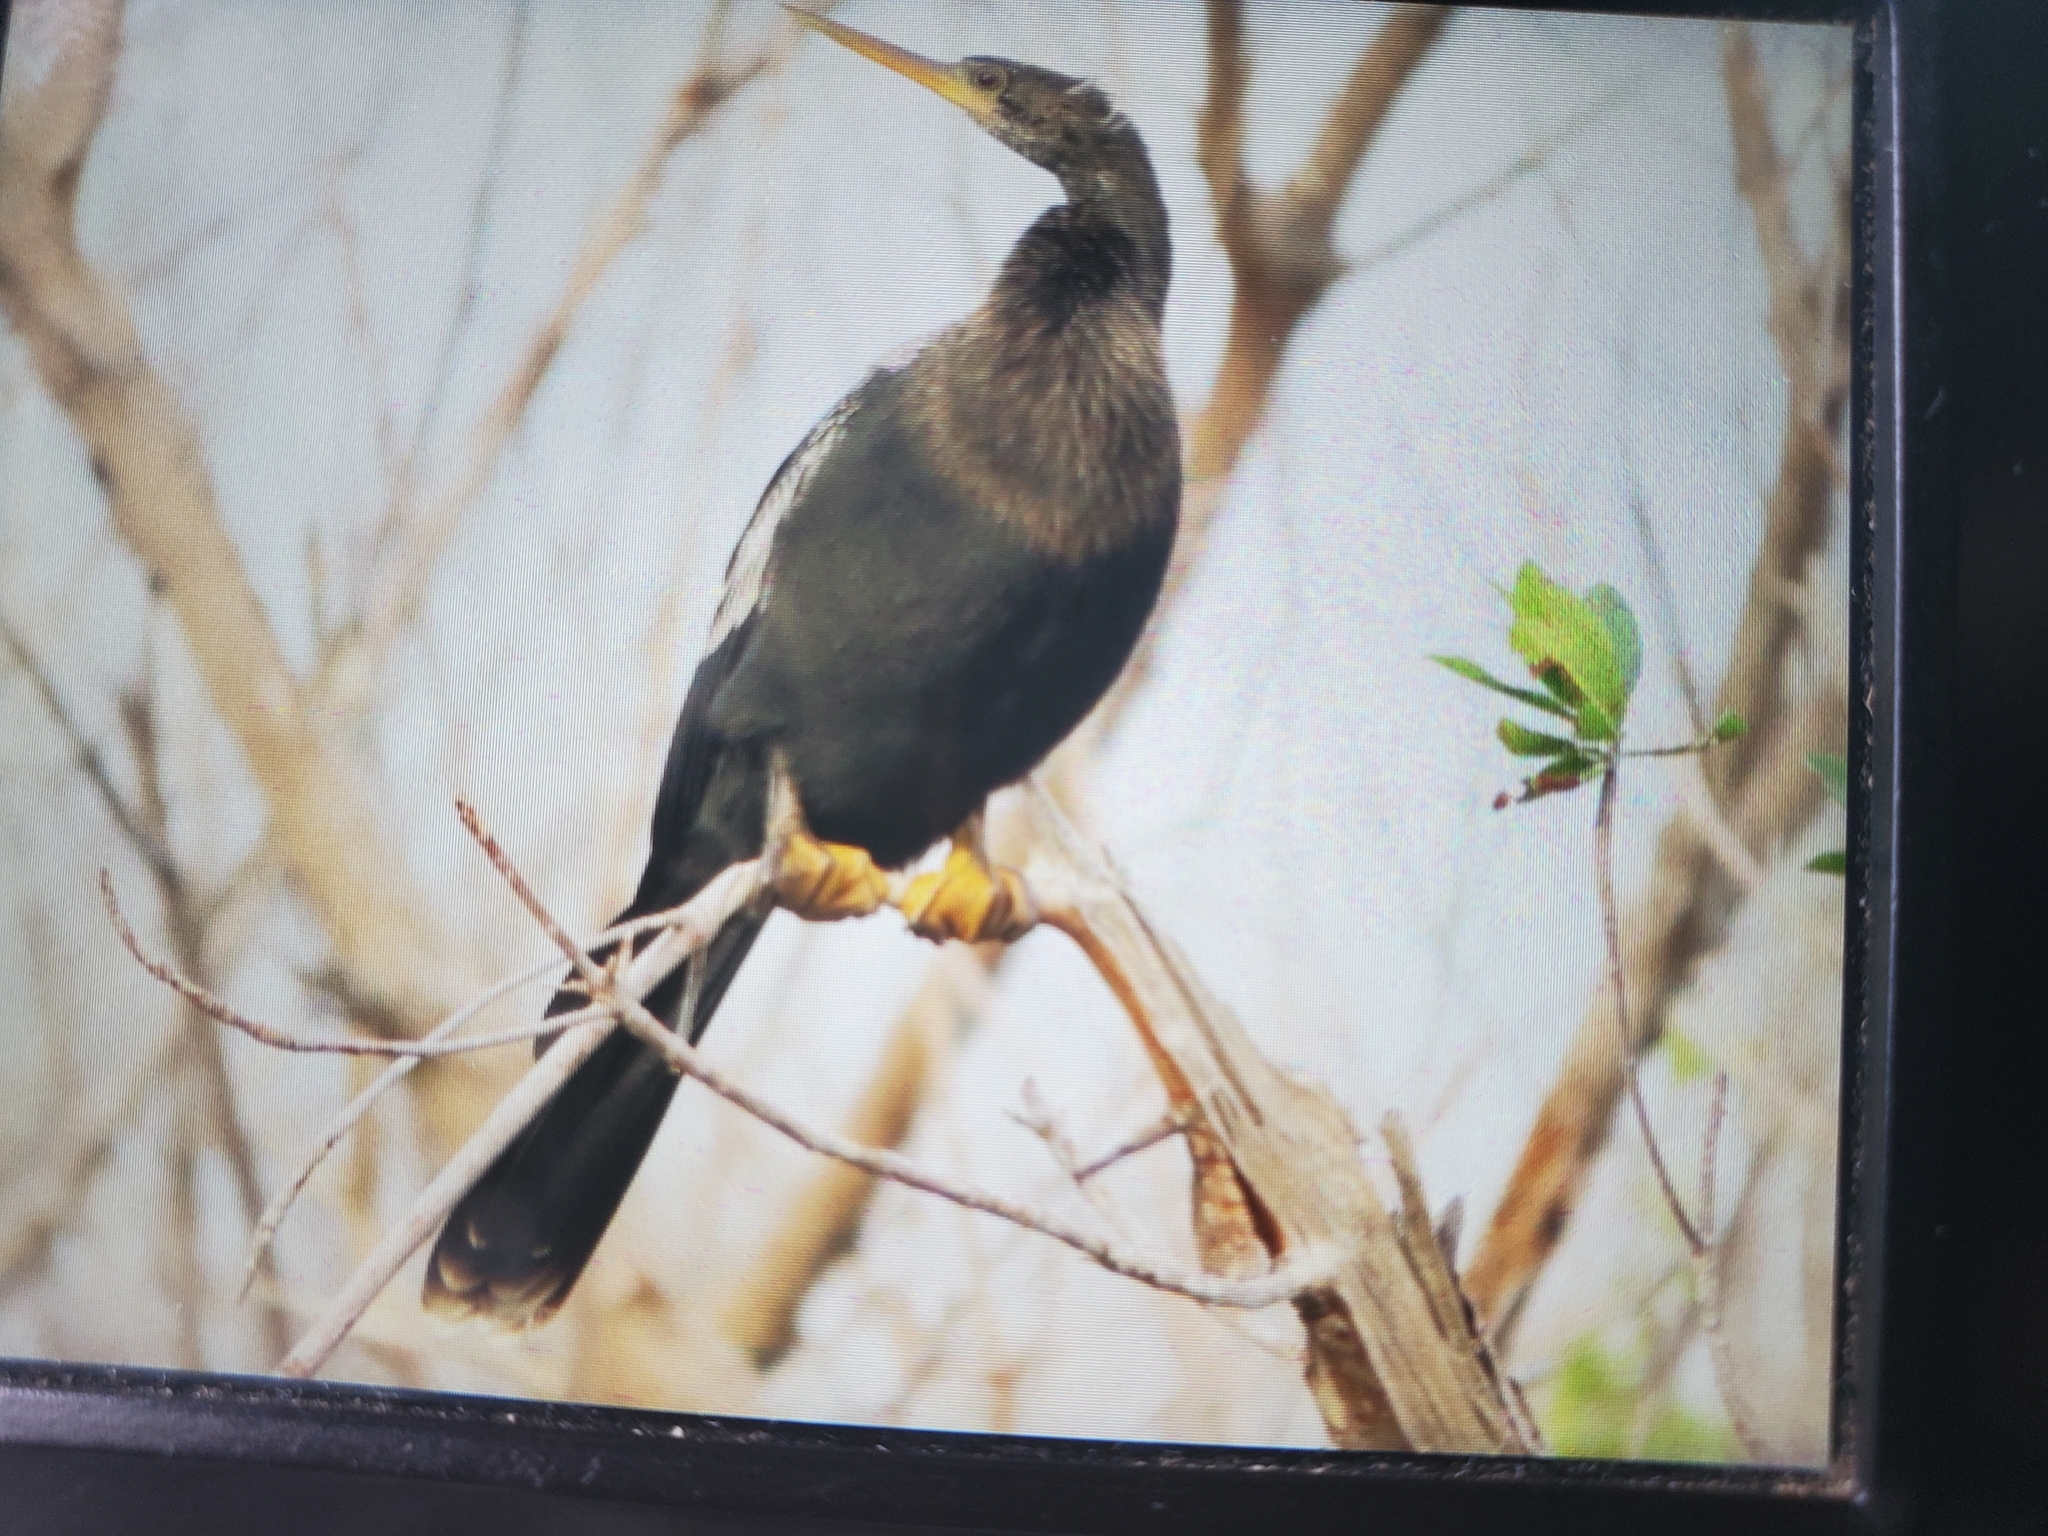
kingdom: Animalia
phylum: Chordata
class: Aves
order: Suliformes
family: Anhingidae
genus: Anhinga
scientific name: Anhinga anhinga
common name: Anhinga
